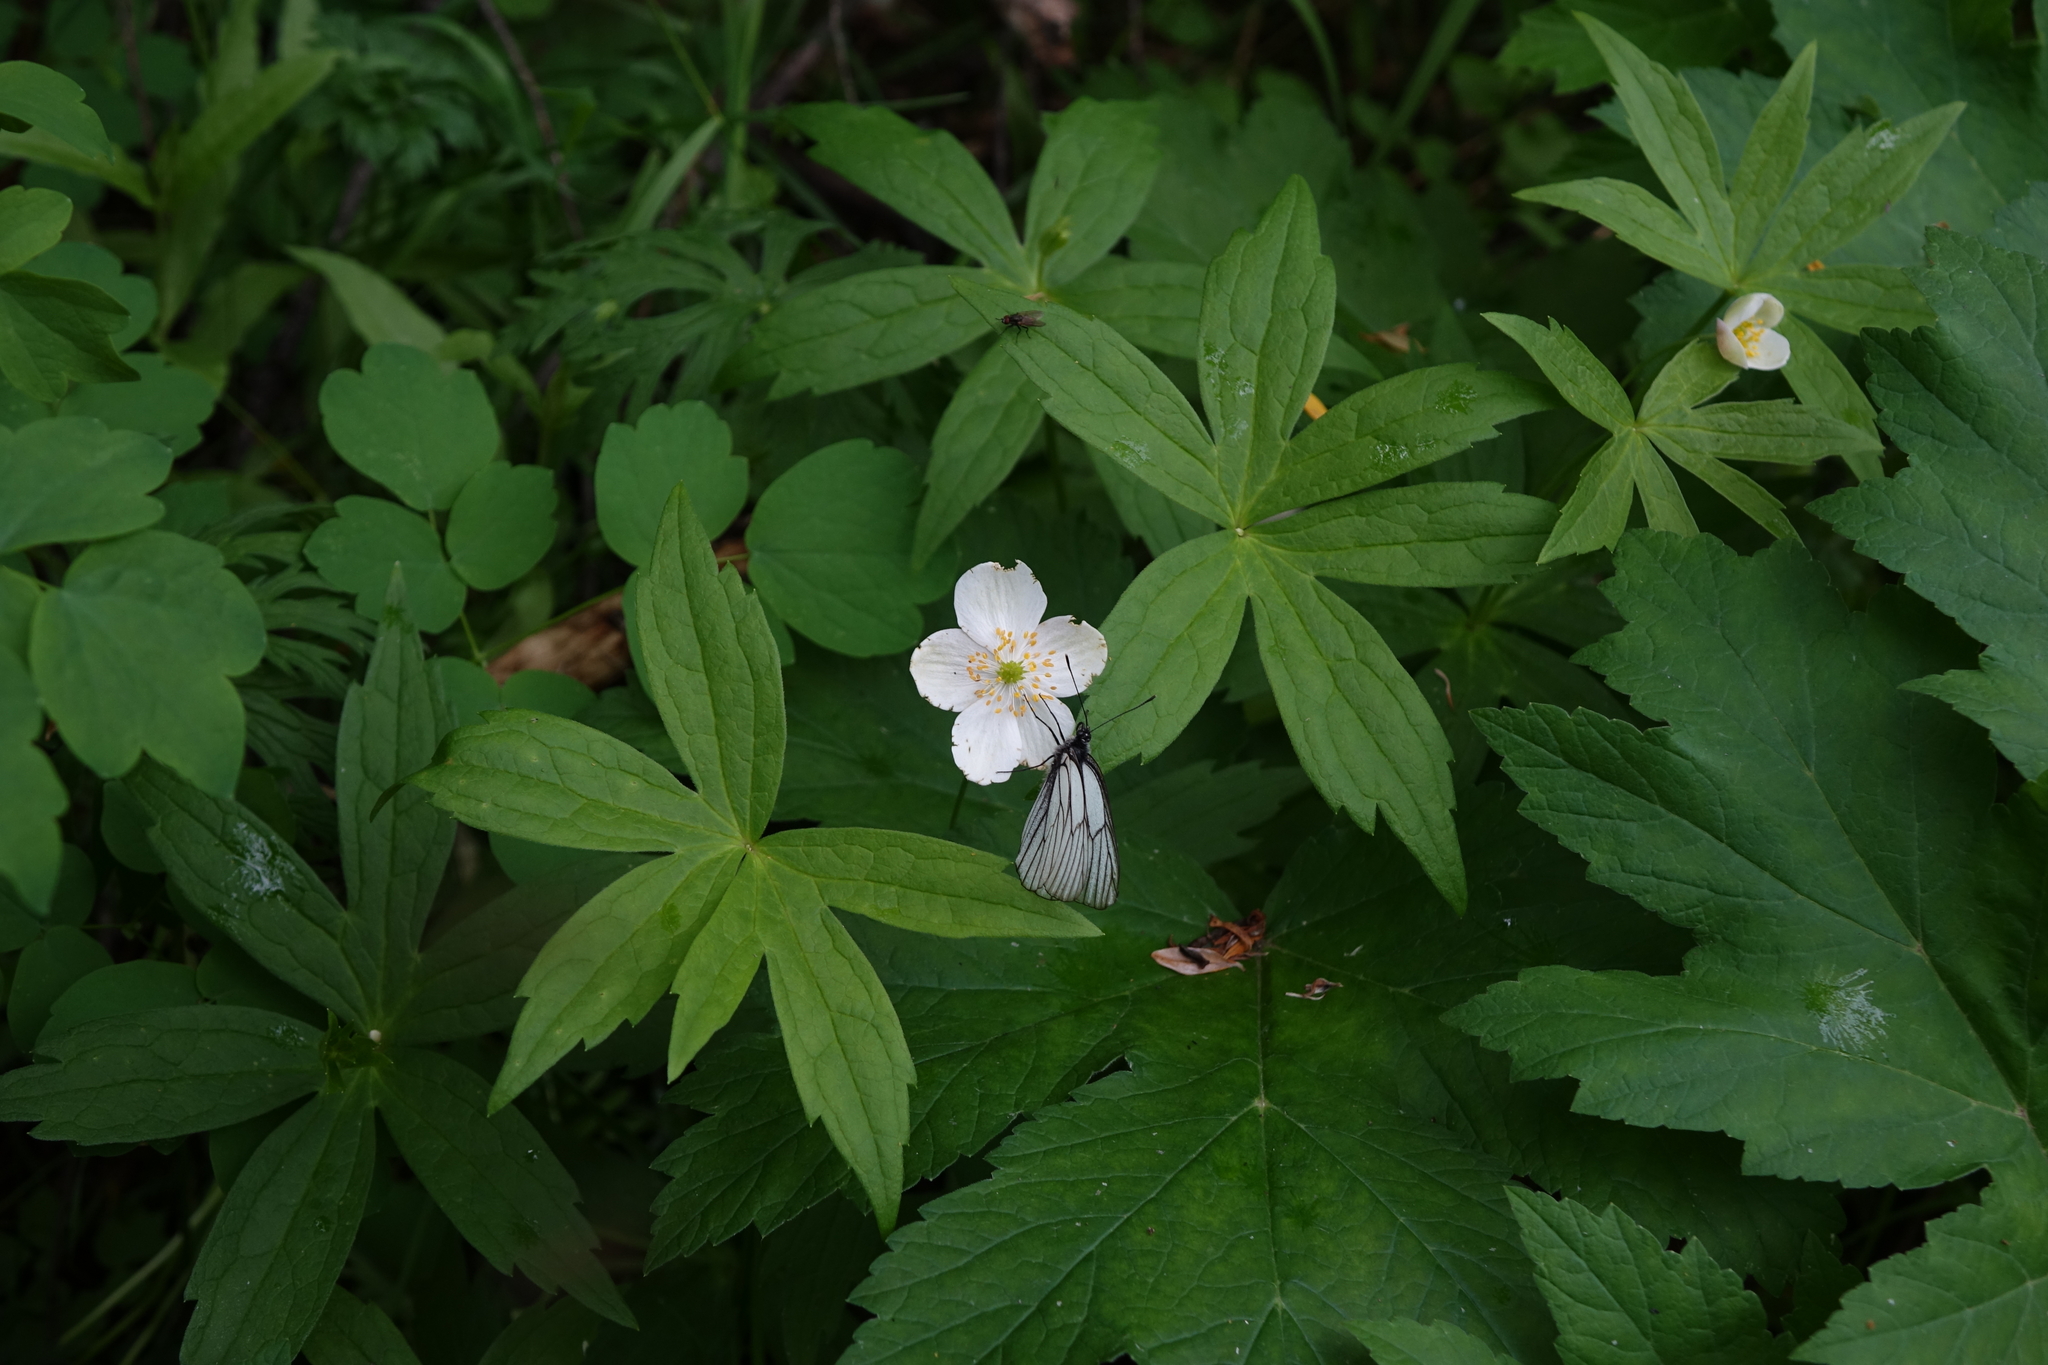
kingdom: Plantae
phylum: Tracheophyta
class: Magnoliopsida
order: Ranunculales
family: Ranunculaceae
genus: Anemonastrum
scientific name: Anemonastrum dichotomum
